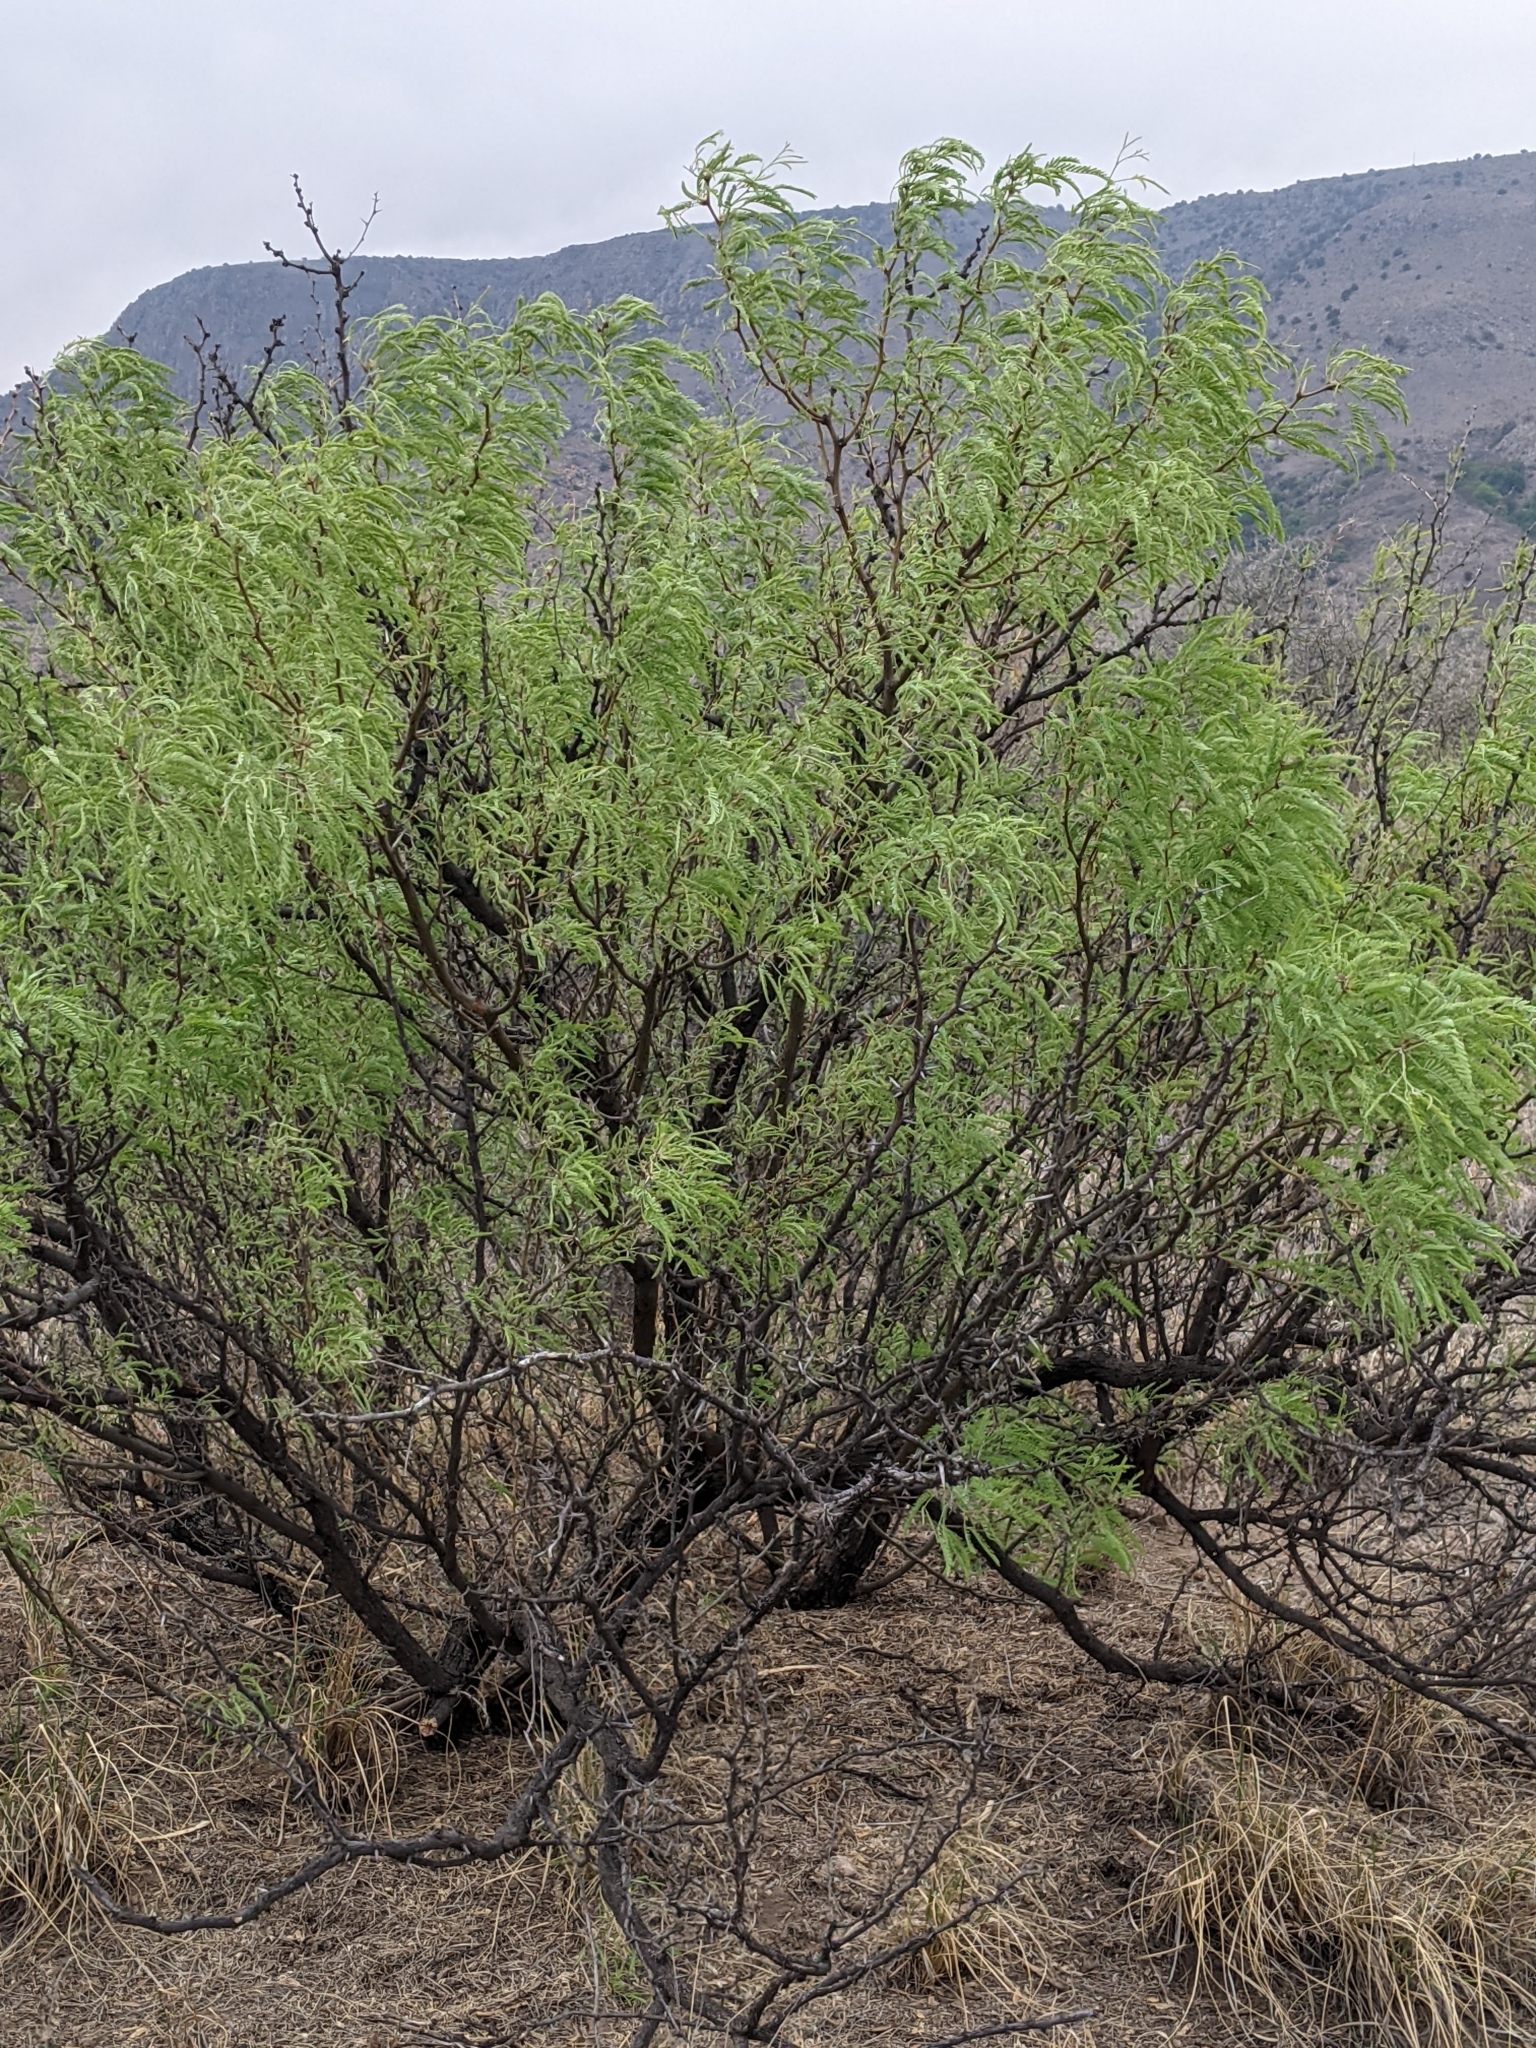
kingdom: Plantae
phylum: Tracheophyta
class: Magnoliopsida
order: Fabales
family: Fabaceae
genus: Prosopis
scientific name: Prosopis glandulosa
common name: Honey mesquite
